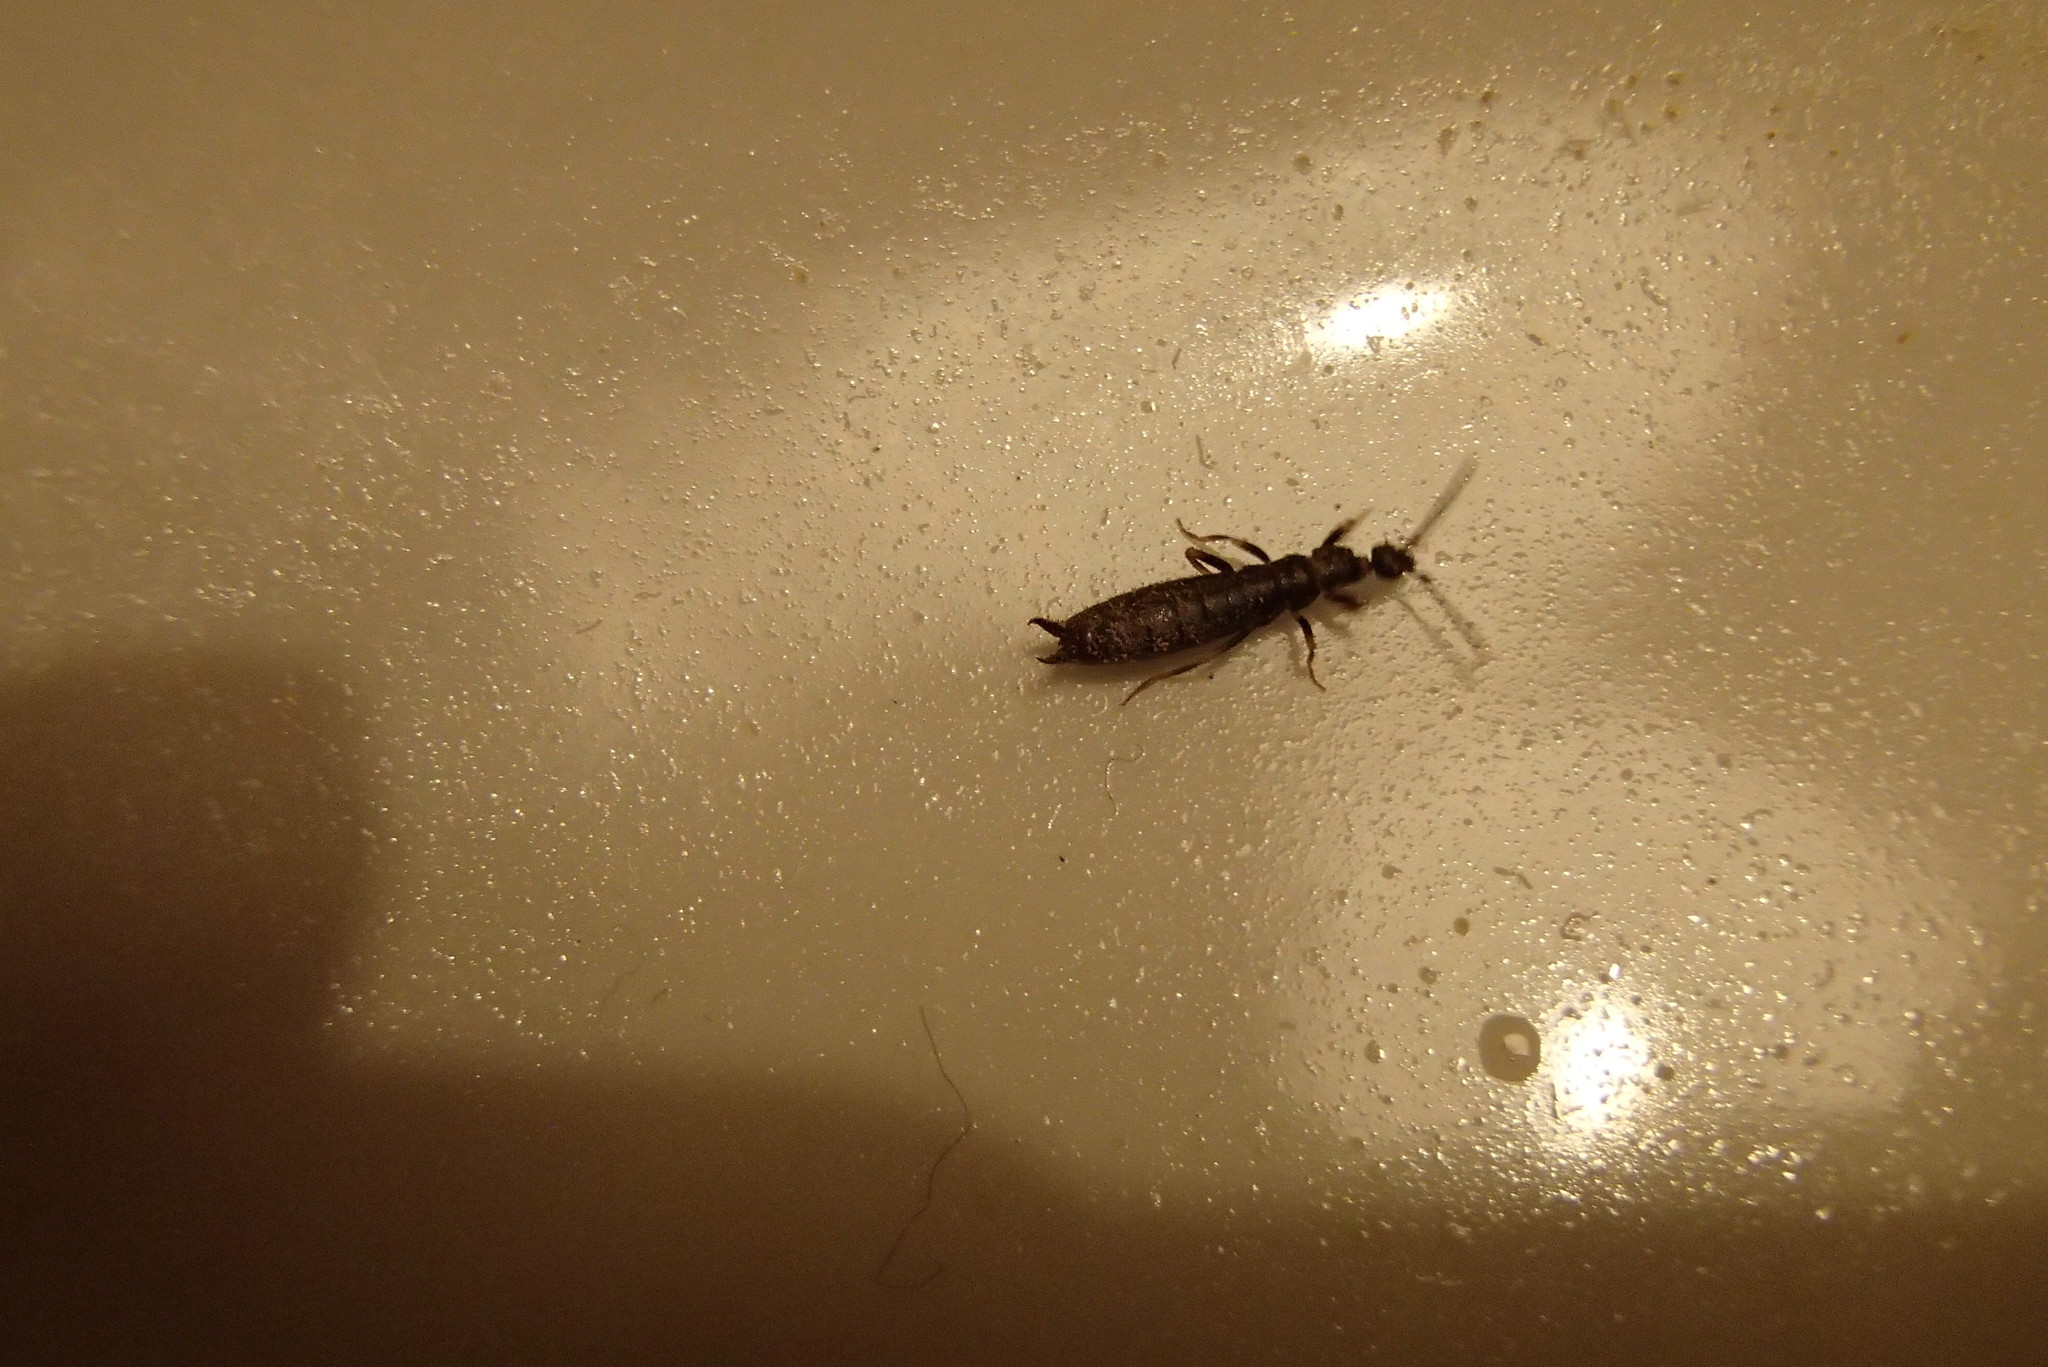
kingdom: Animalia
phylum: Arthropoda
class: Insecta
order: Dermaptera
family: Anisolabididae
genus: Metisolabis
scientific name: Metisolabis punctata
